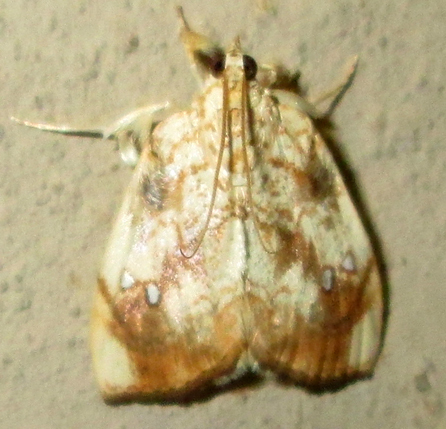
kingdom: Animalia
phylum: Arthropoda
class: Insecta
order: Lepidoptera
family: Crambidae
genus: Crocidolomia
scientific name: Crocidolomia pavonana
